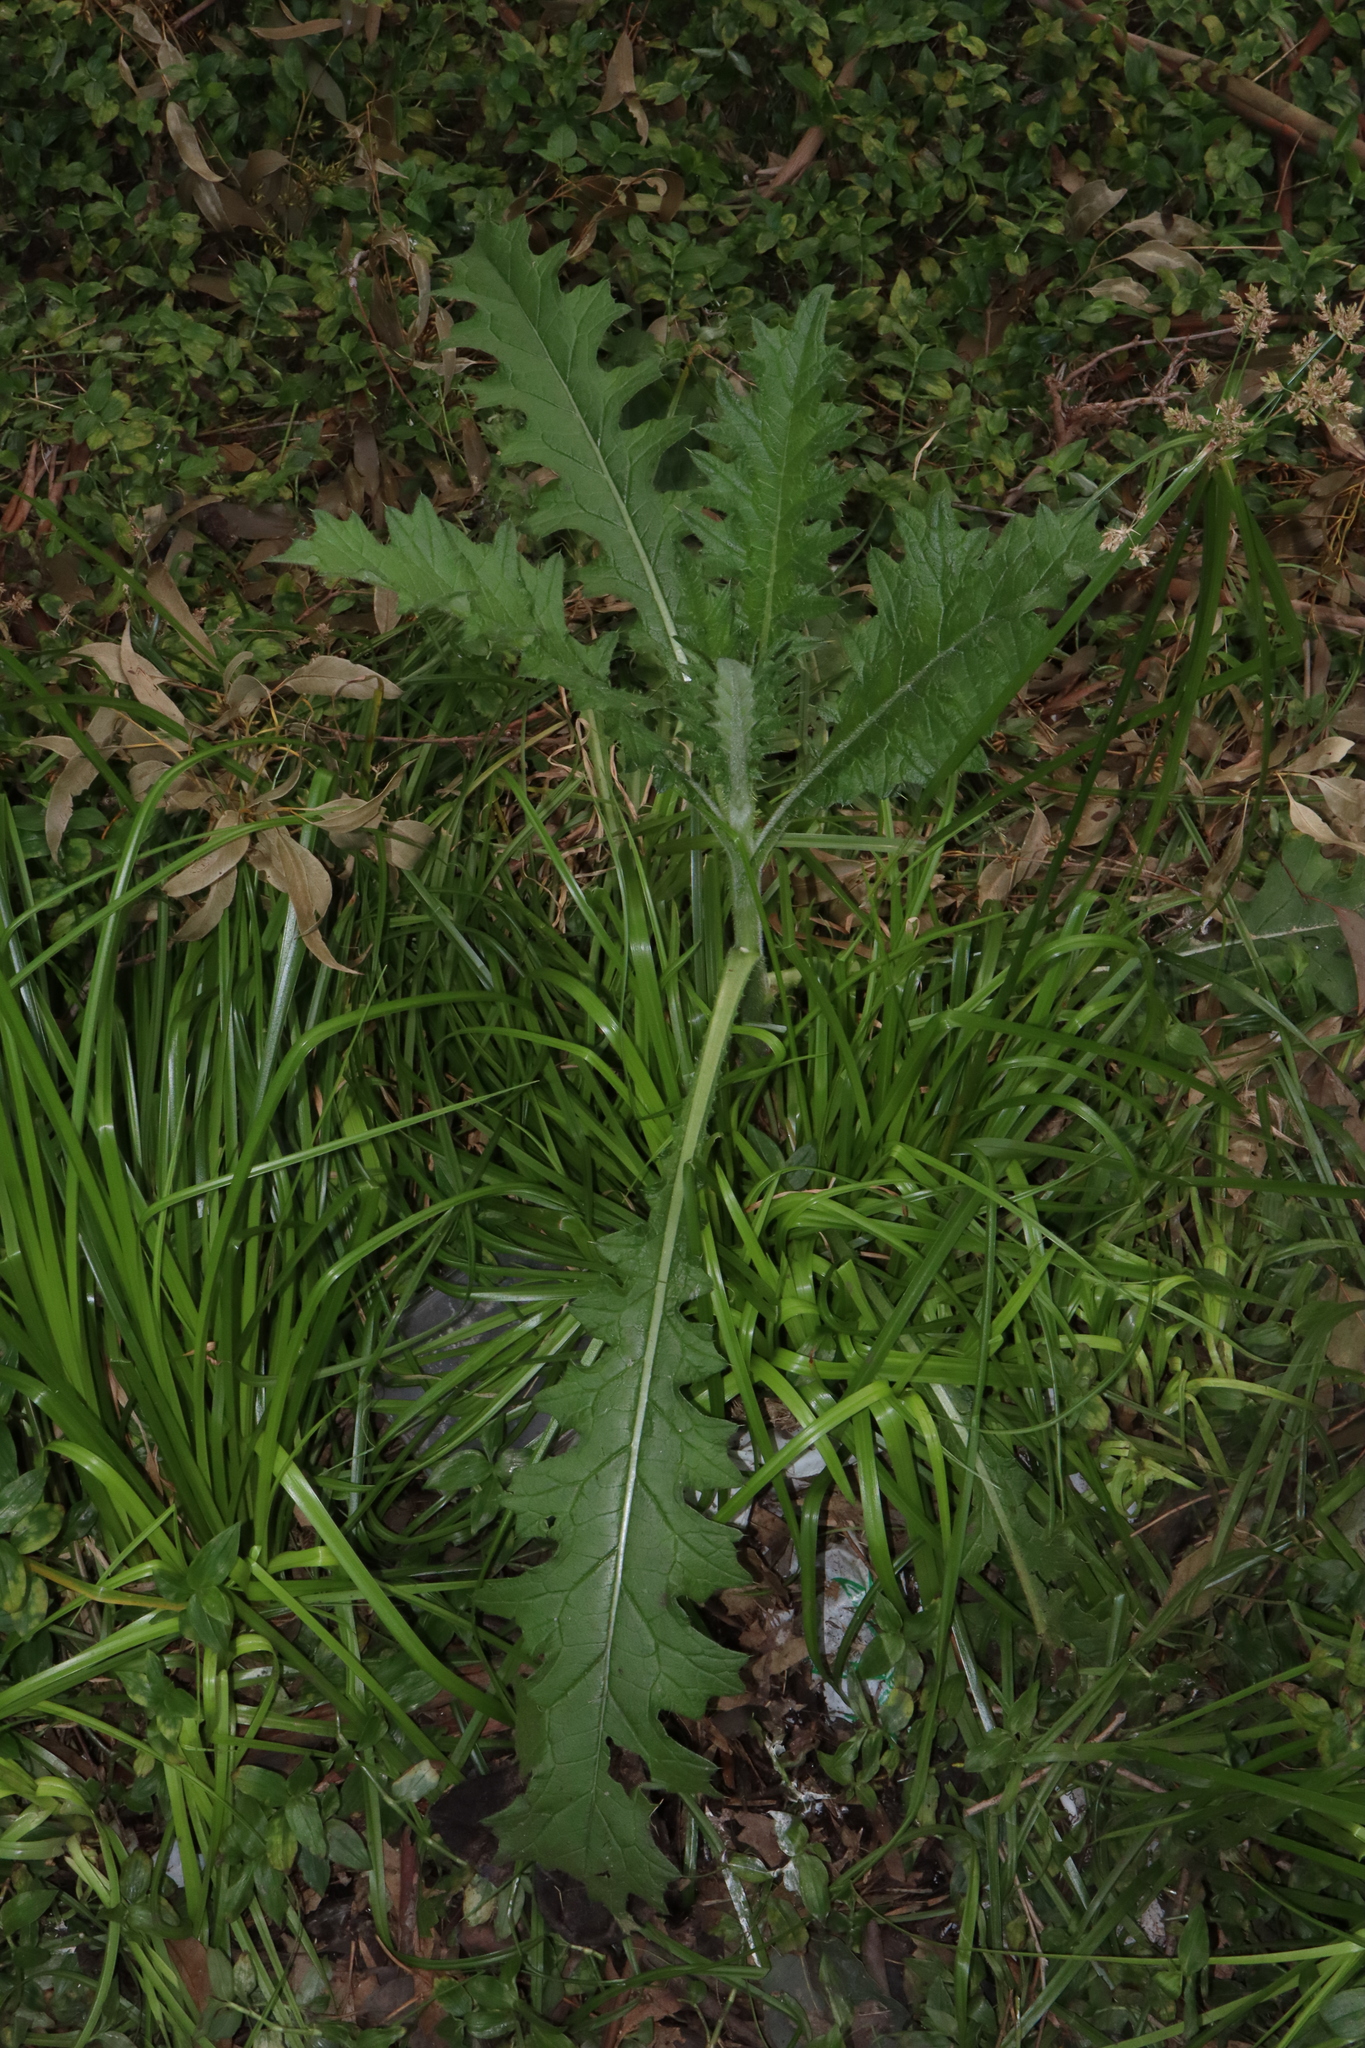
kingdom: Plantae
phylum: Tracheophyta
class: Magnoliopsida
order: Asterales
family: Asteraceae
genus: Cirsium
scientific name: Cirsium vulgare
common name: Bull thistle
